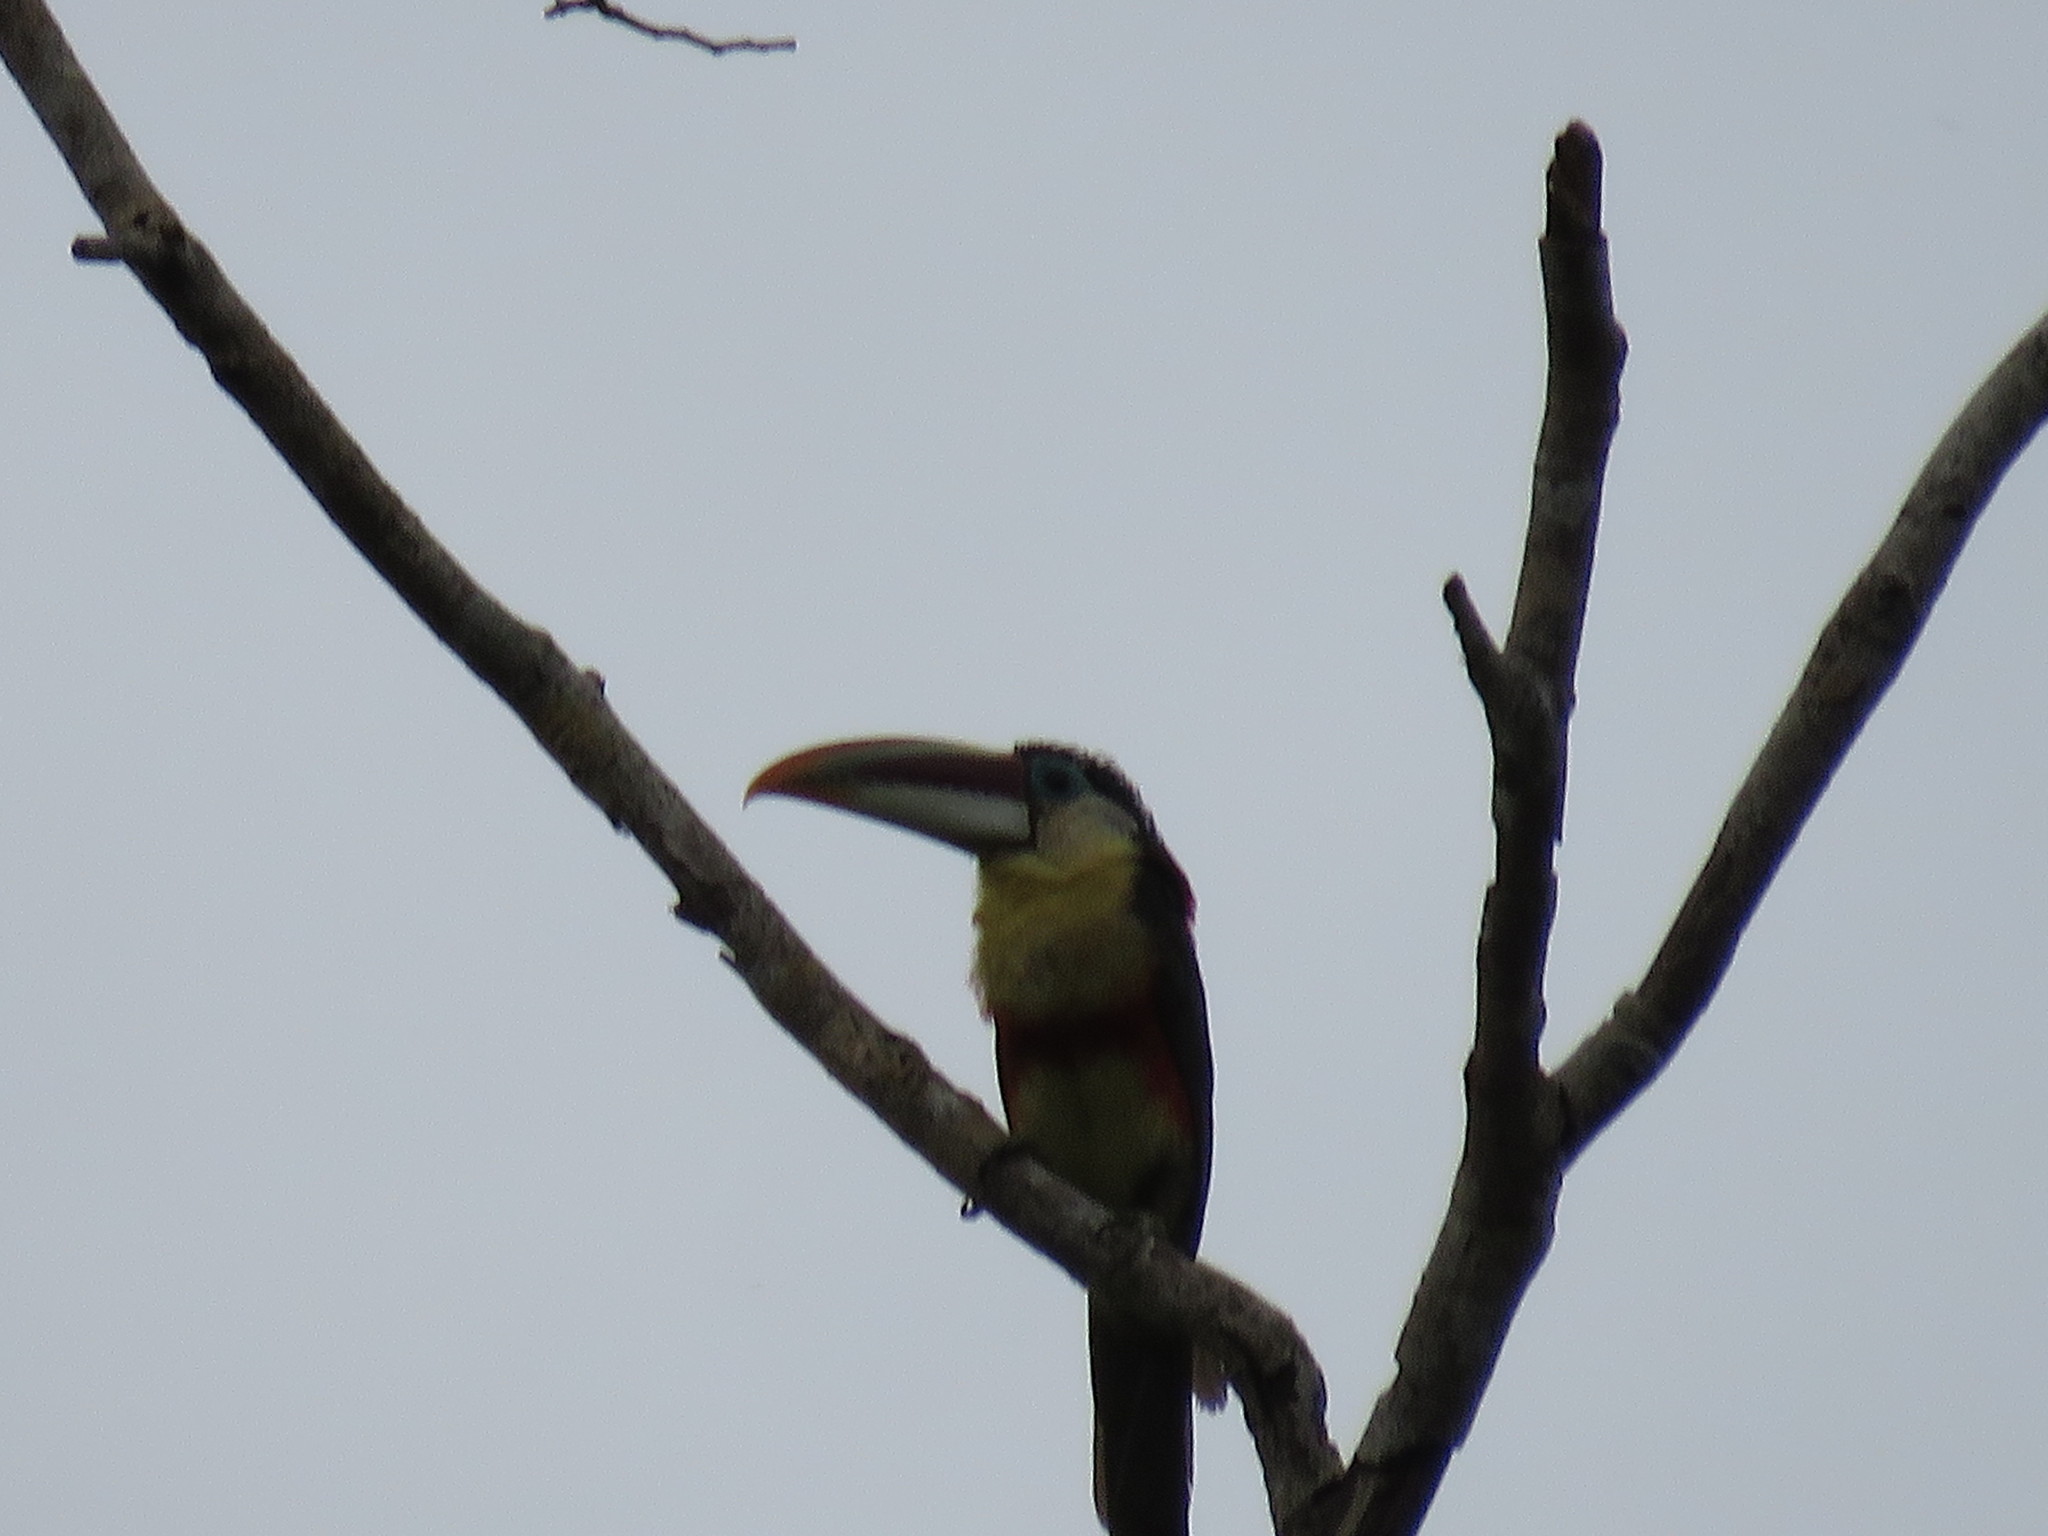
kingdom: Animalia
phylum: Chordata
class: Aves
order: Piciformes
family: Ramphastidae
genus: Pteroglossus
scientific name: Pteroglossus beauharnaisii
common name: Curl-crested aracari
